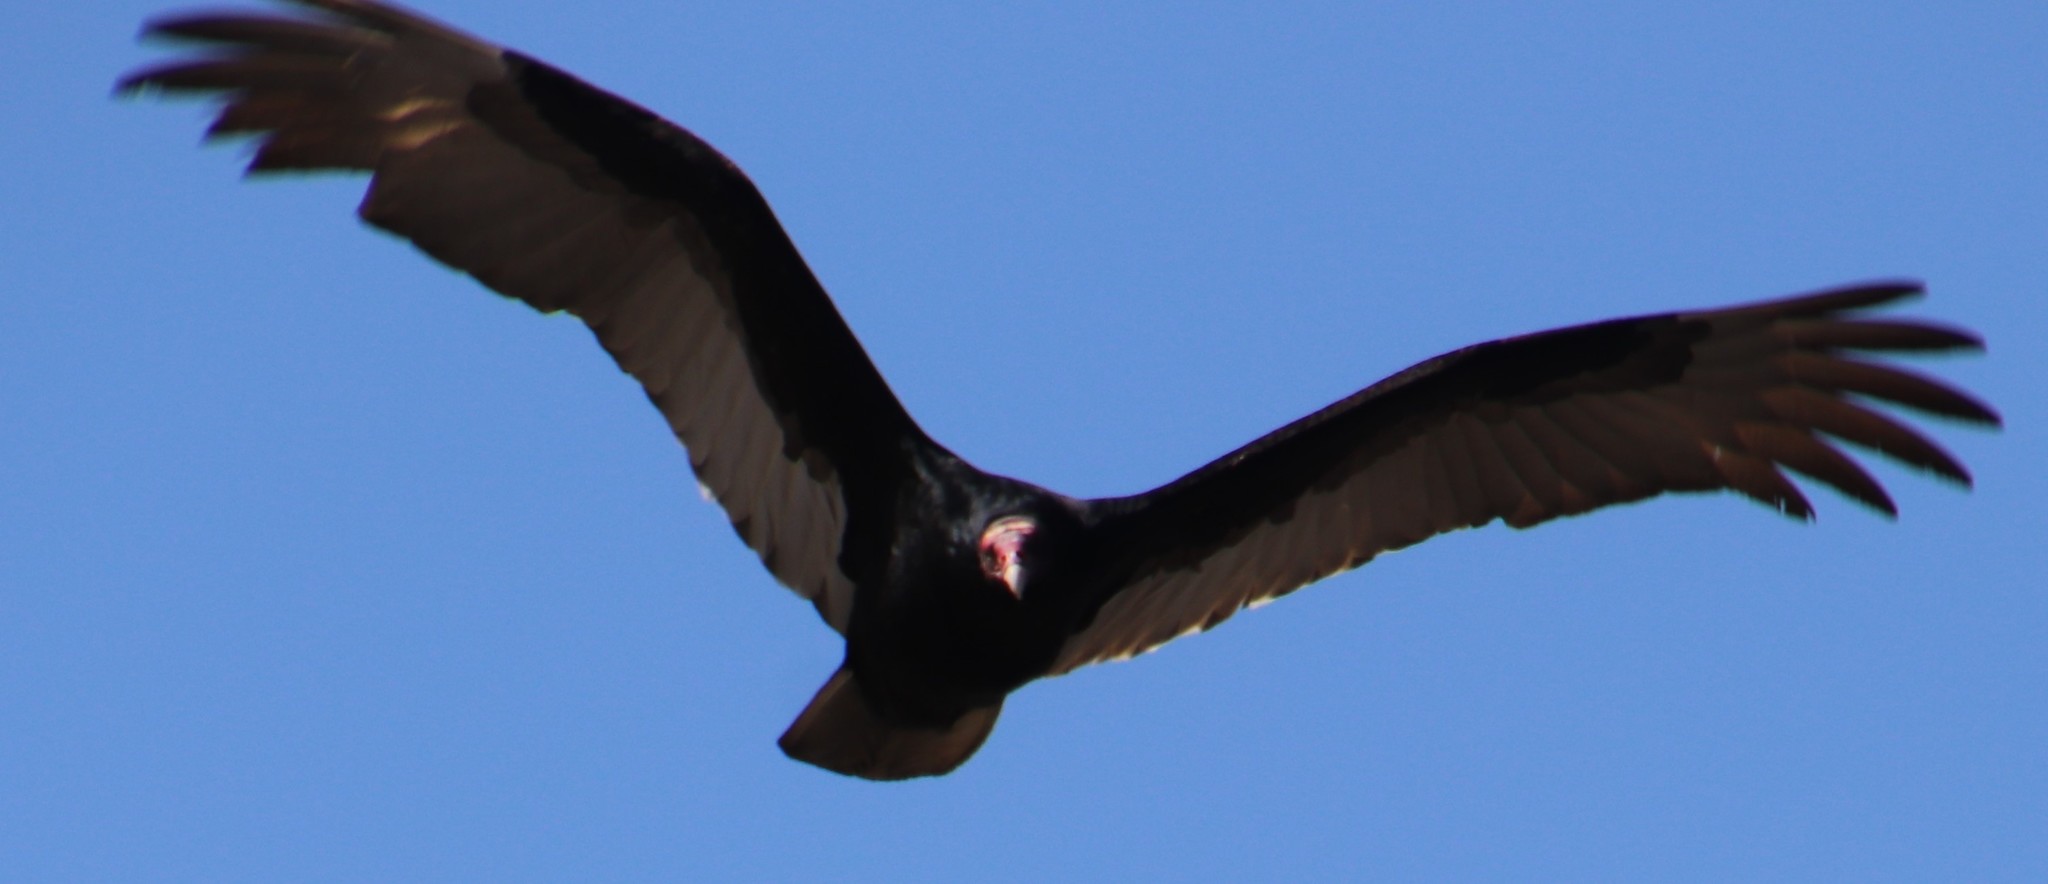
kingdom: Animalia
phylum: Chordata
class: Aves
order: Accipitriformes
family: Cathartidae
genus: Cathartes
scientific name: Cathartes aura
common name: Turkey vulture
